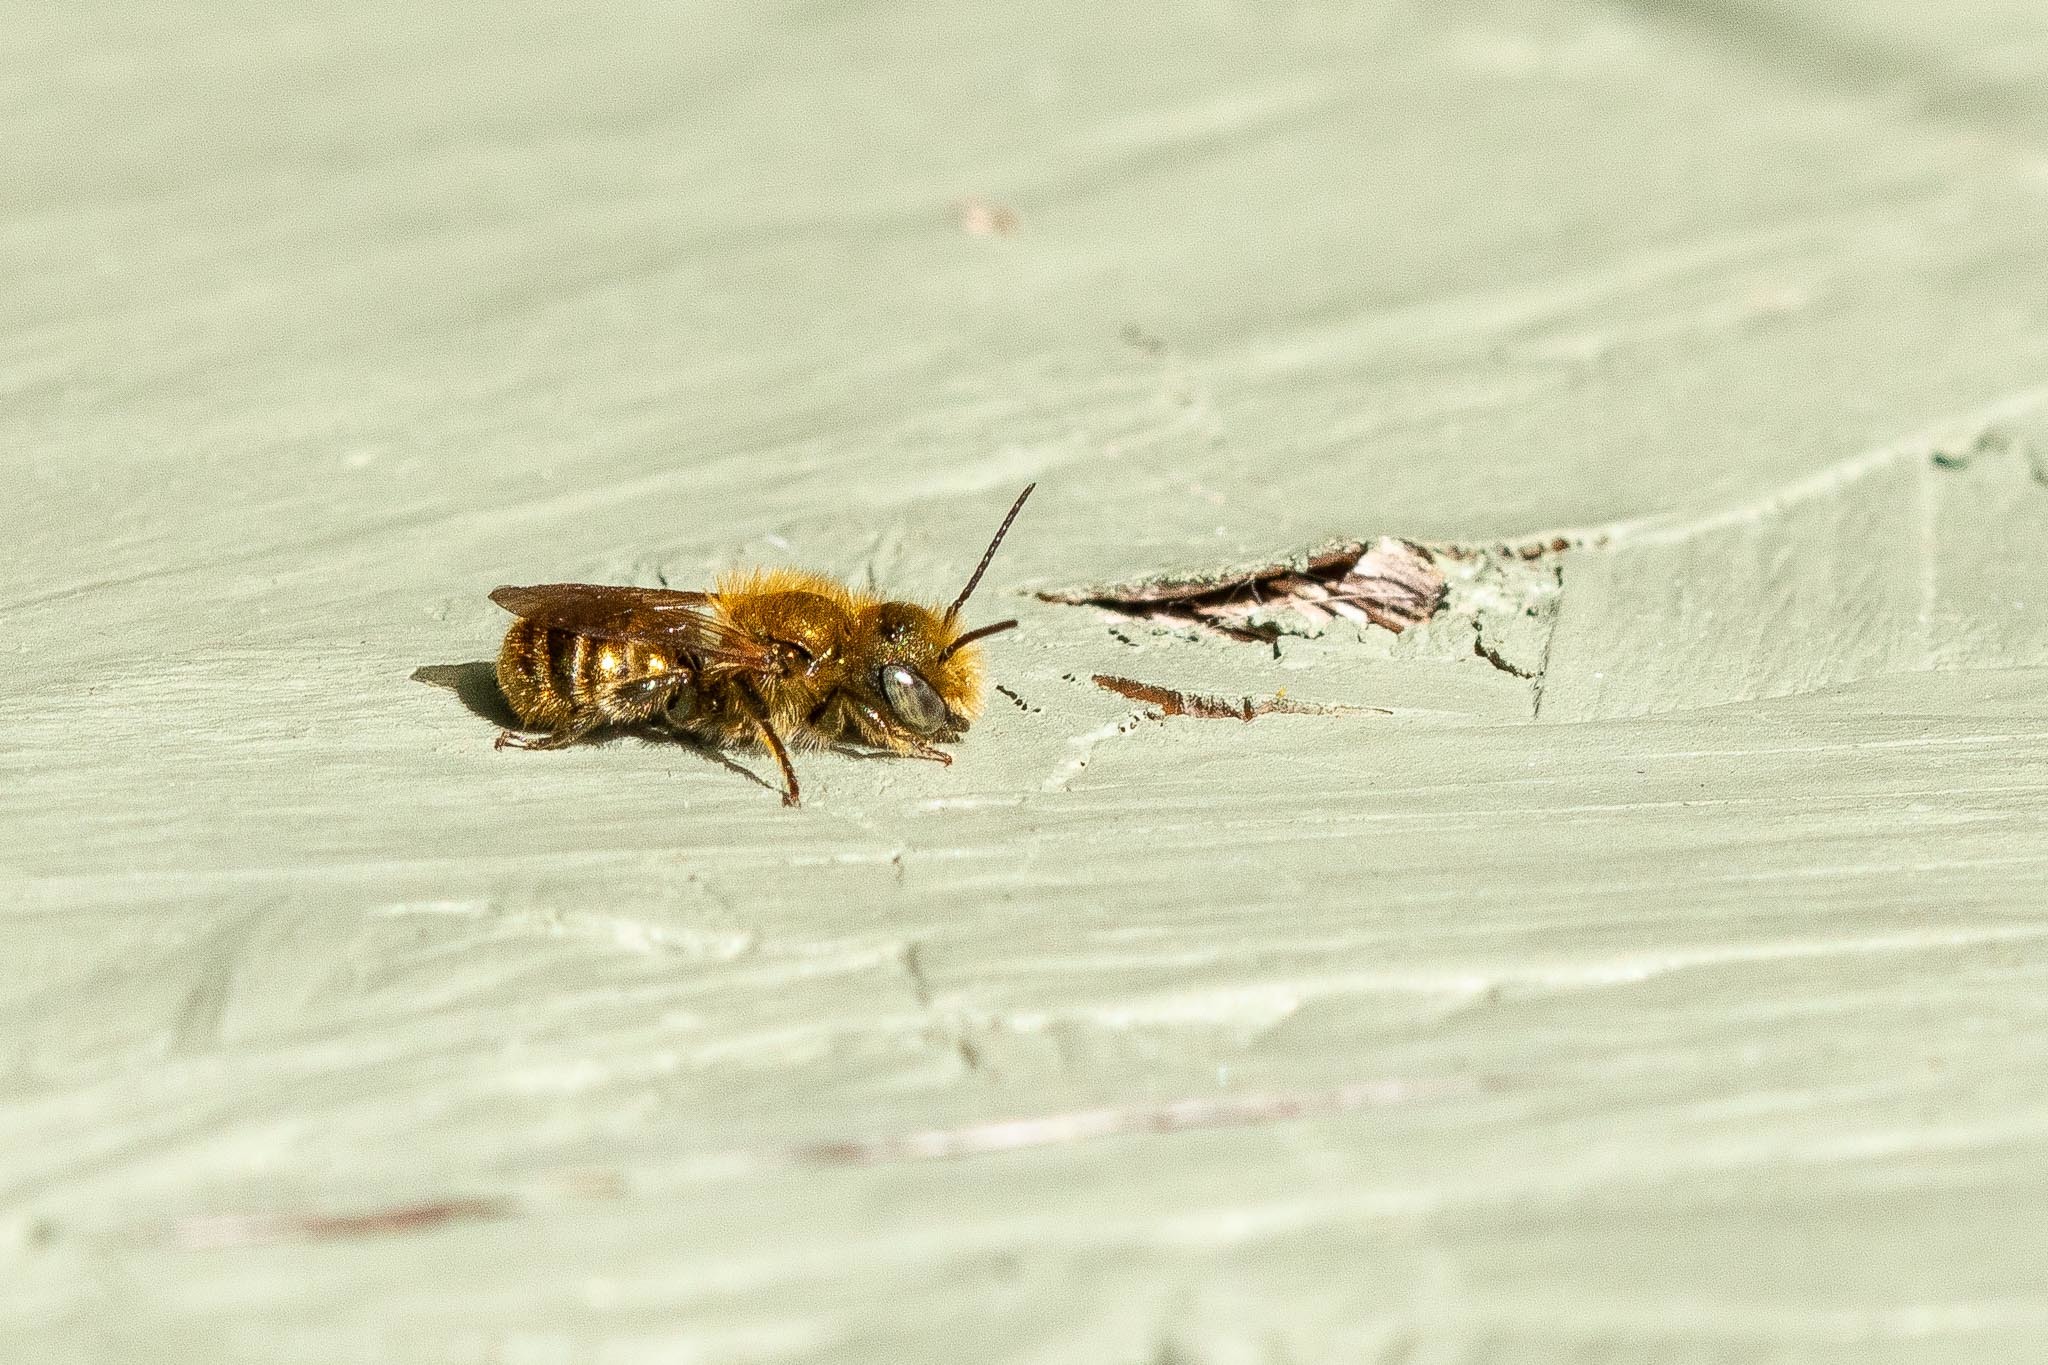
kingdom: Animalia
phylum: Arthropoda
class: Insecta
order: Hymenoptera
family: Megachilidae
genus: Osmia
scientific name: Osmia caerulescens
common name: Blue mason bee
